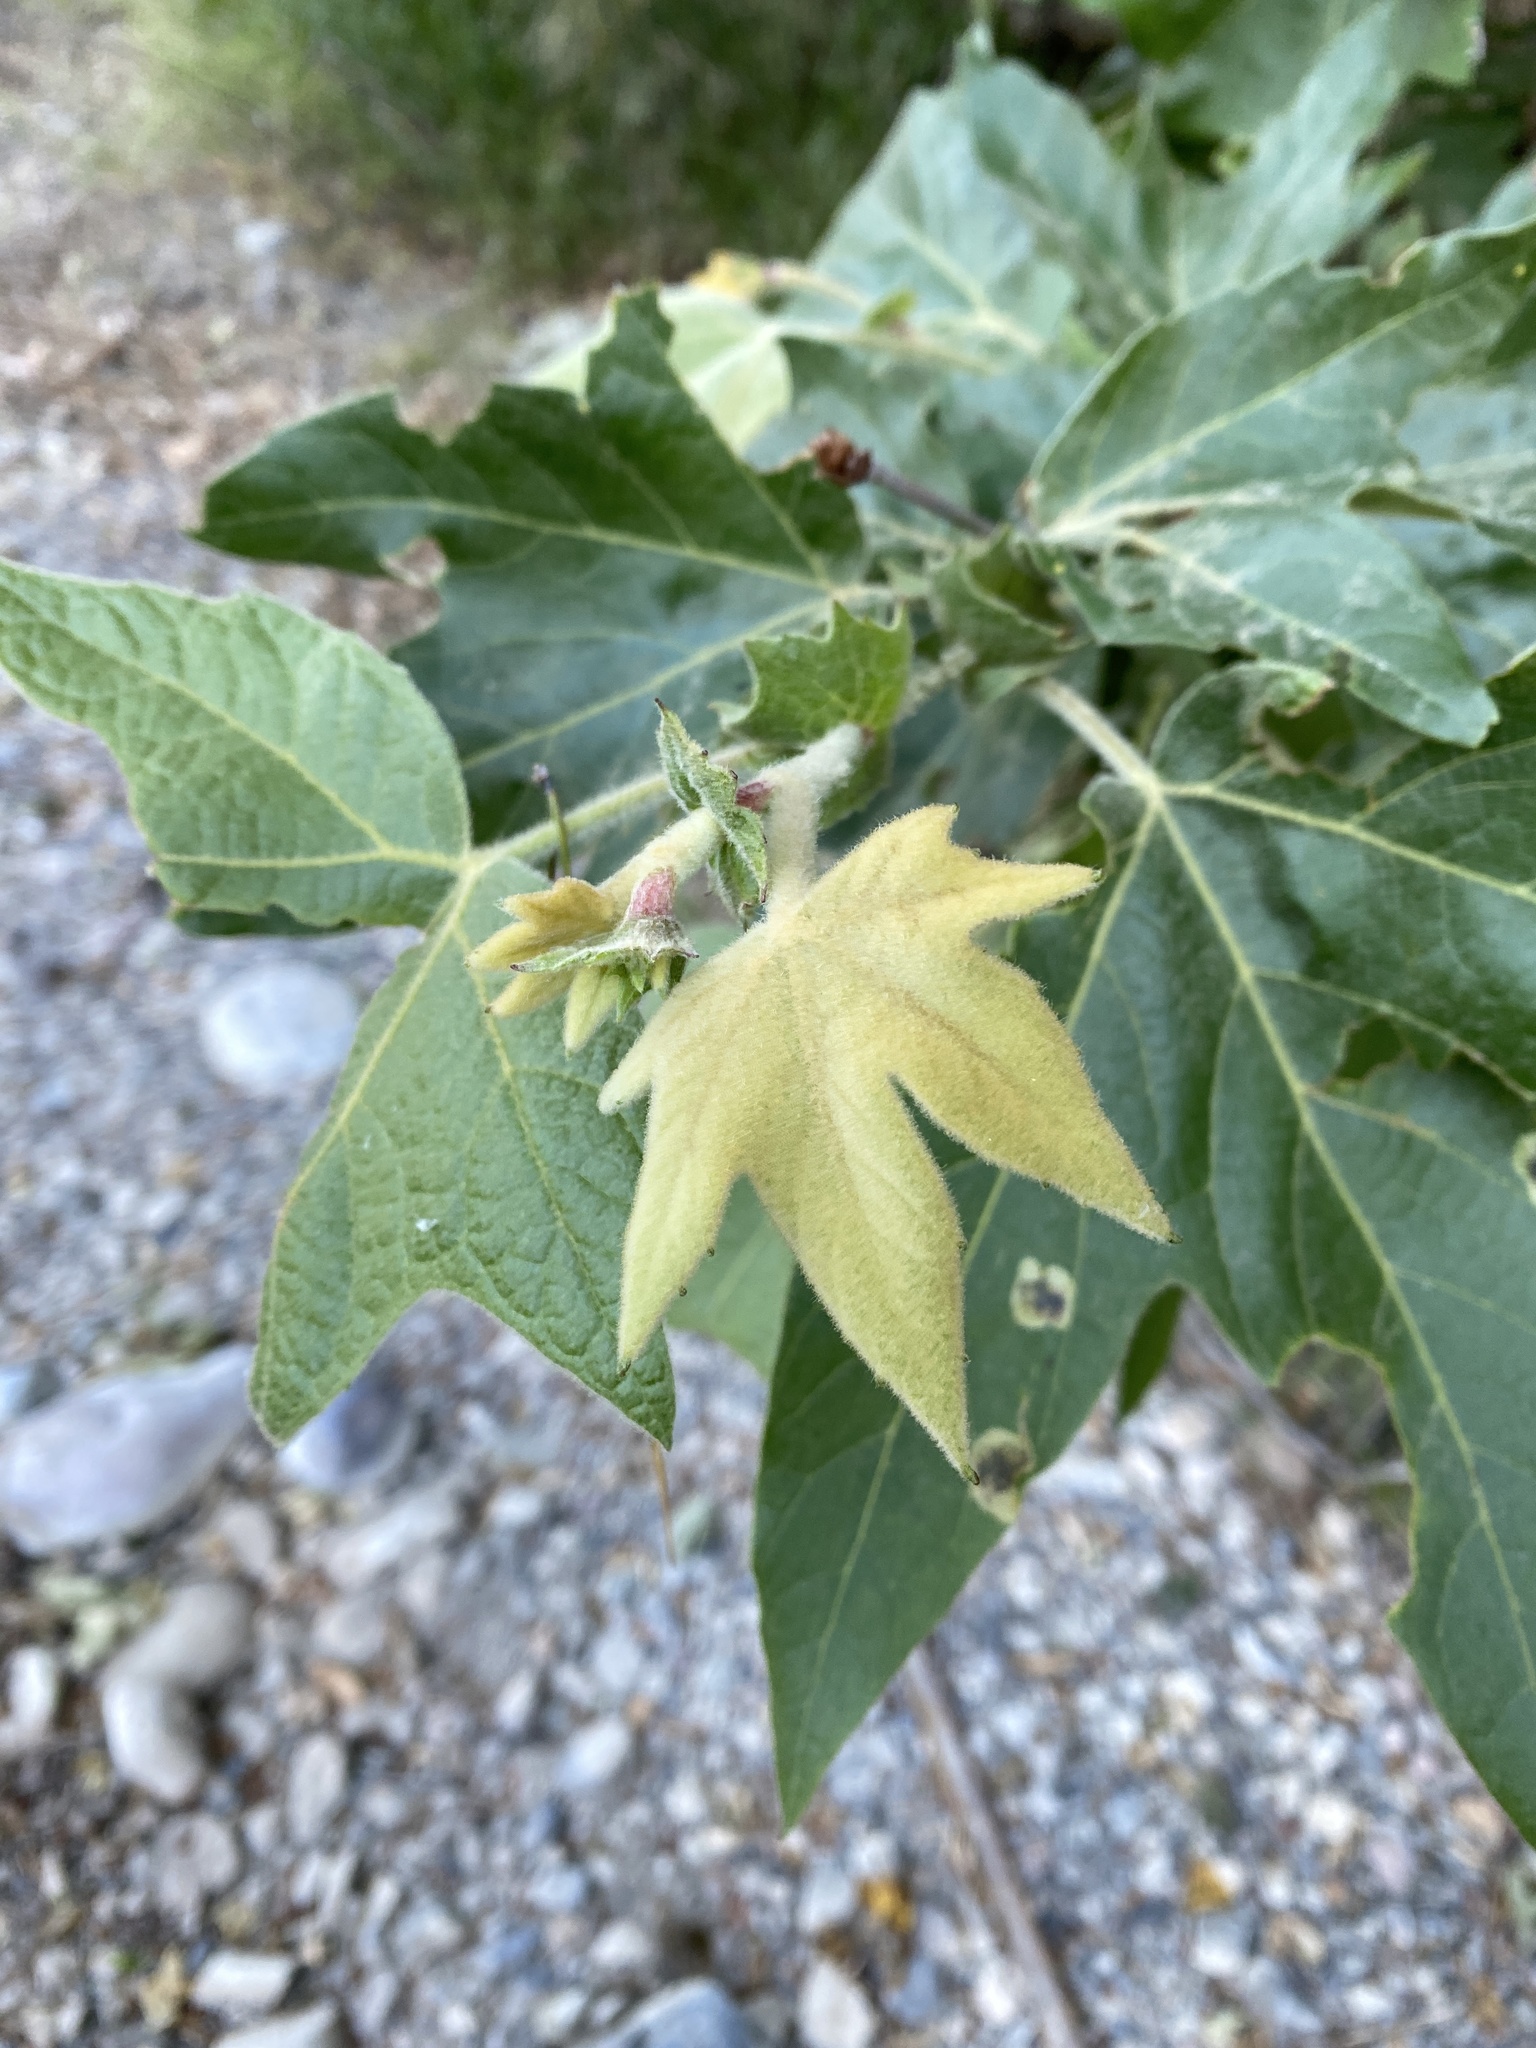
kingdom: Plantae
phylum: Tracheophyta
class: Magnoliopsida
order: Proteales
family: Platanaceae
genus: Platanus
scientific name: Platanus racemosa
